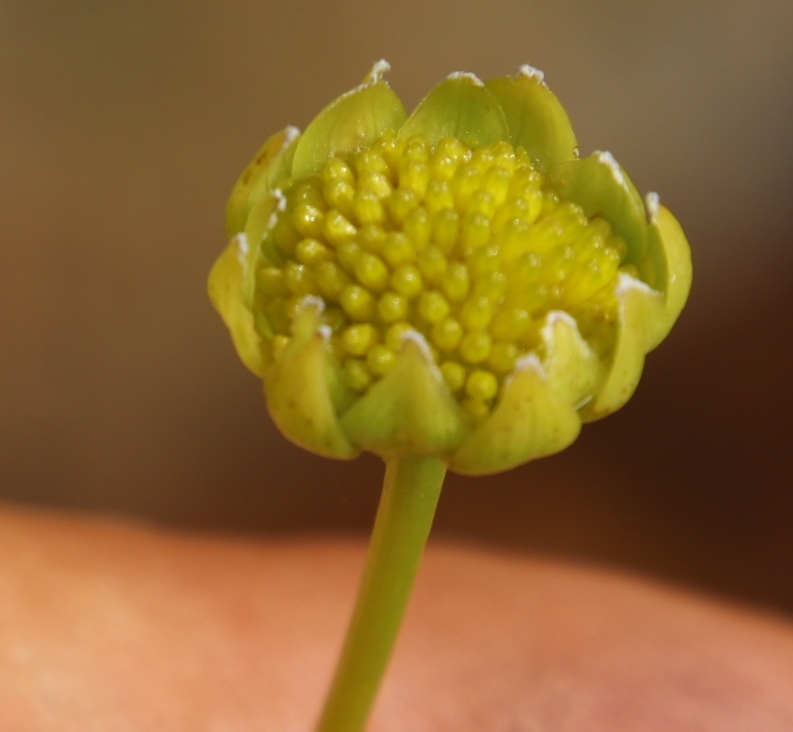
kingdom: Plantae
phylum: Tracheophyta
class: Magnoliopsida
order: Asterales
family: Asteraceae
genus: Euryops
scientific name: Euryops pedunculatus
